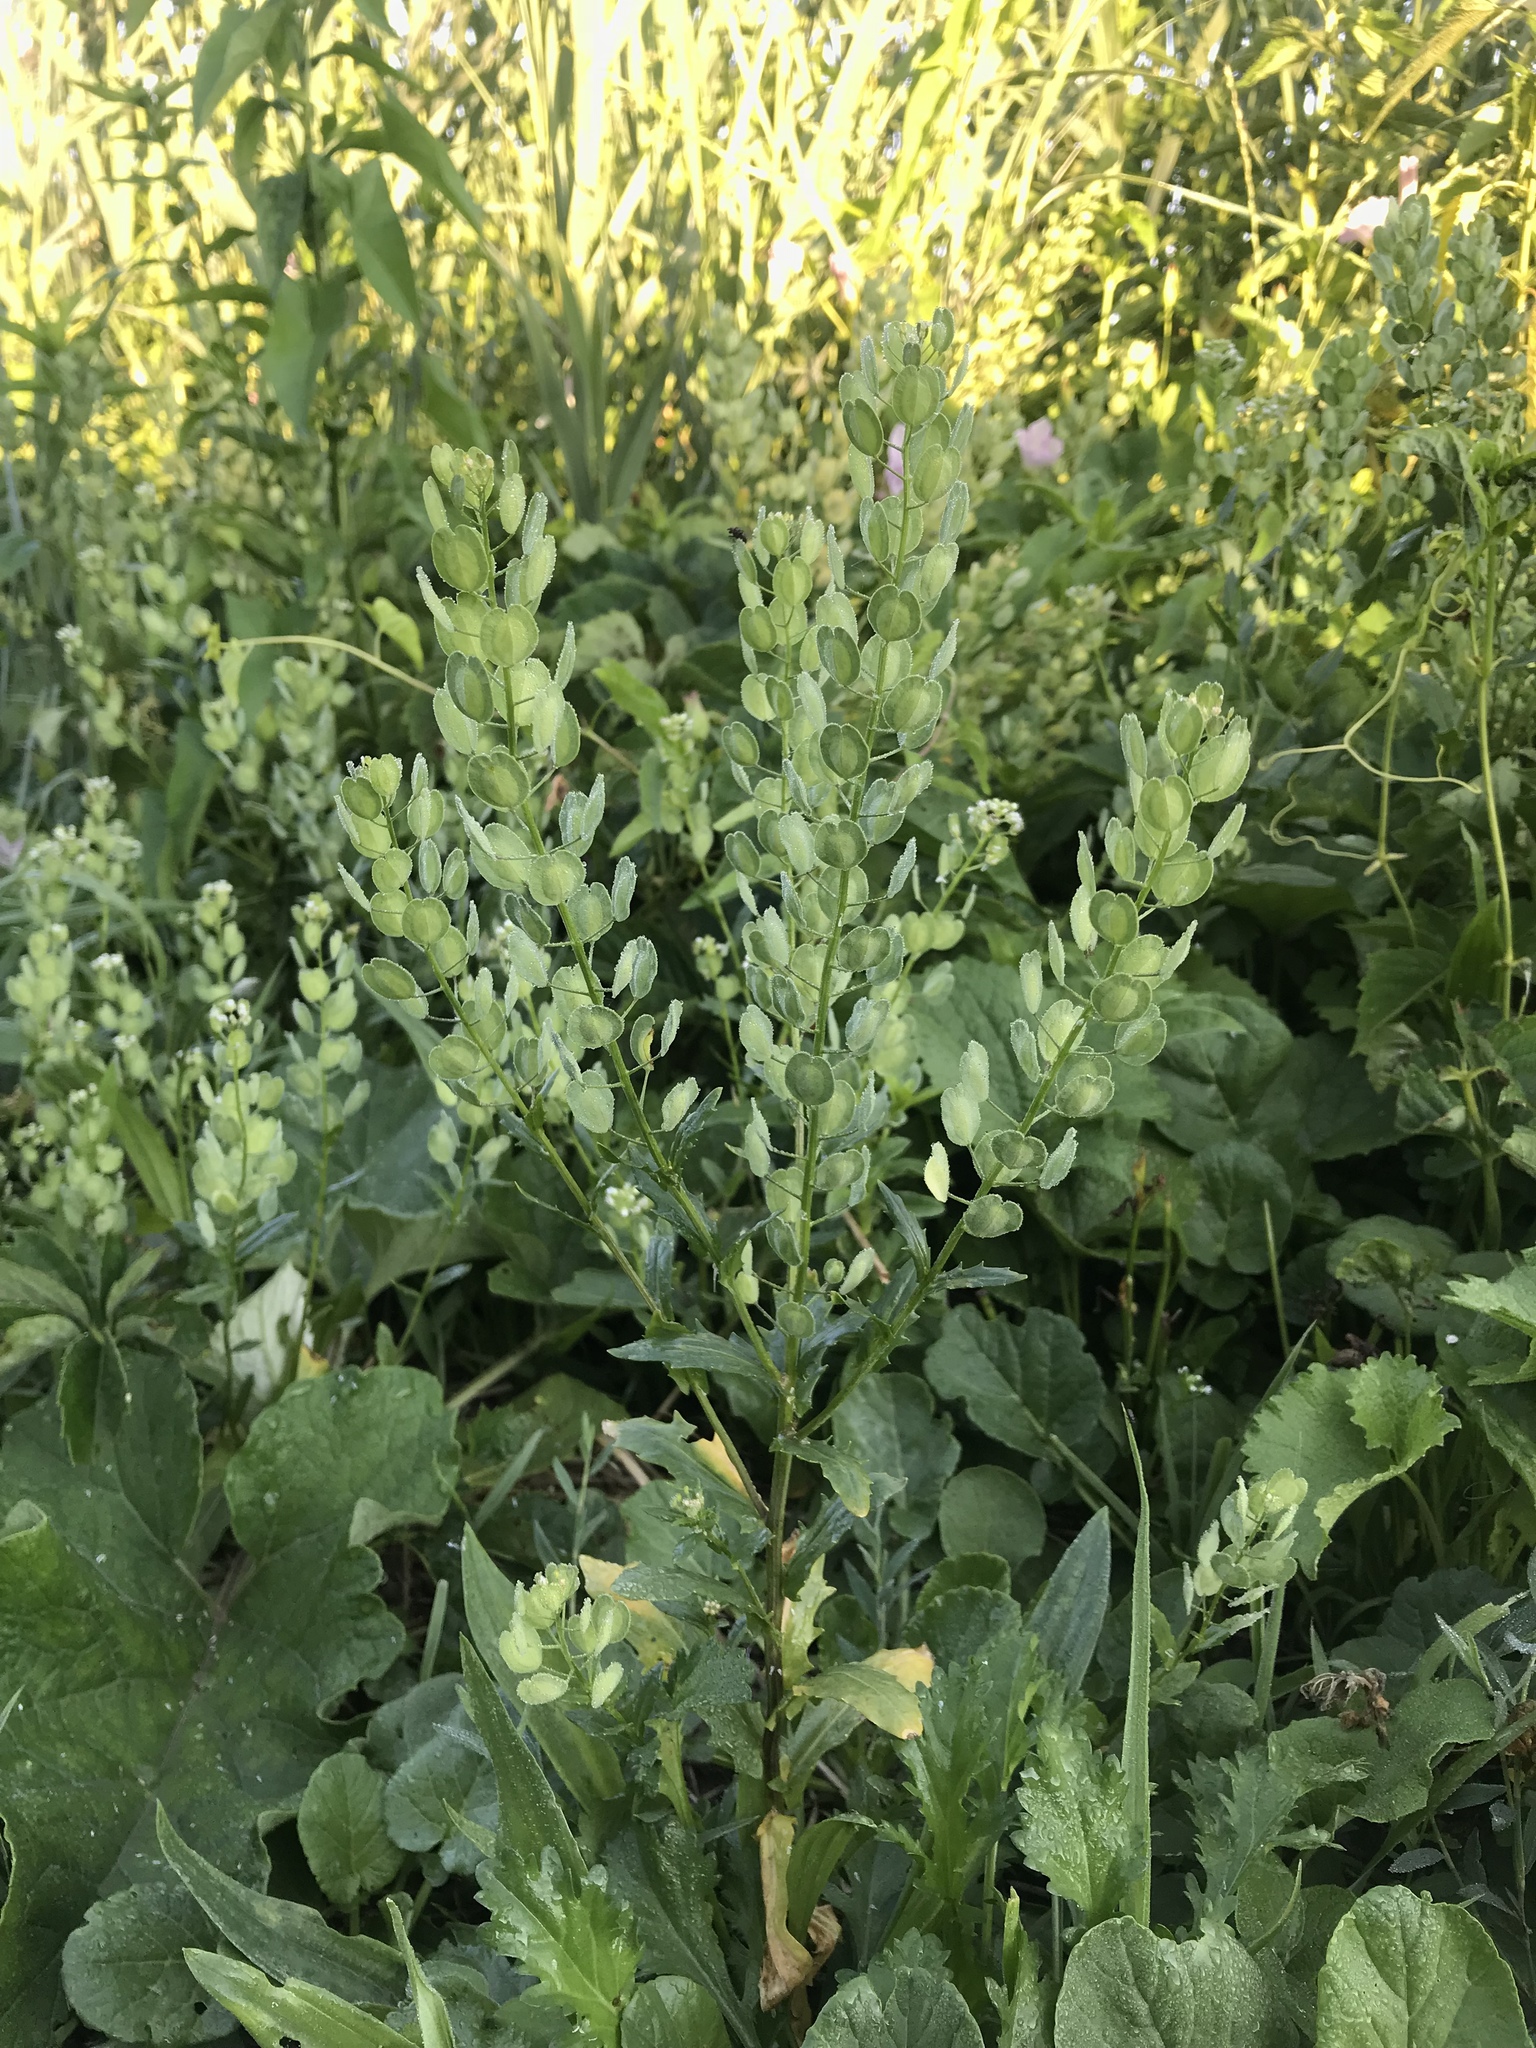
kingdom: Plantae
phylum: Tracheophyta
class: Magnoliopsida
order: Brassicales
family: Brassicaceae
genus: Thlaspi
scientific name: Thlaspi arvense
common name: Field pennycress
